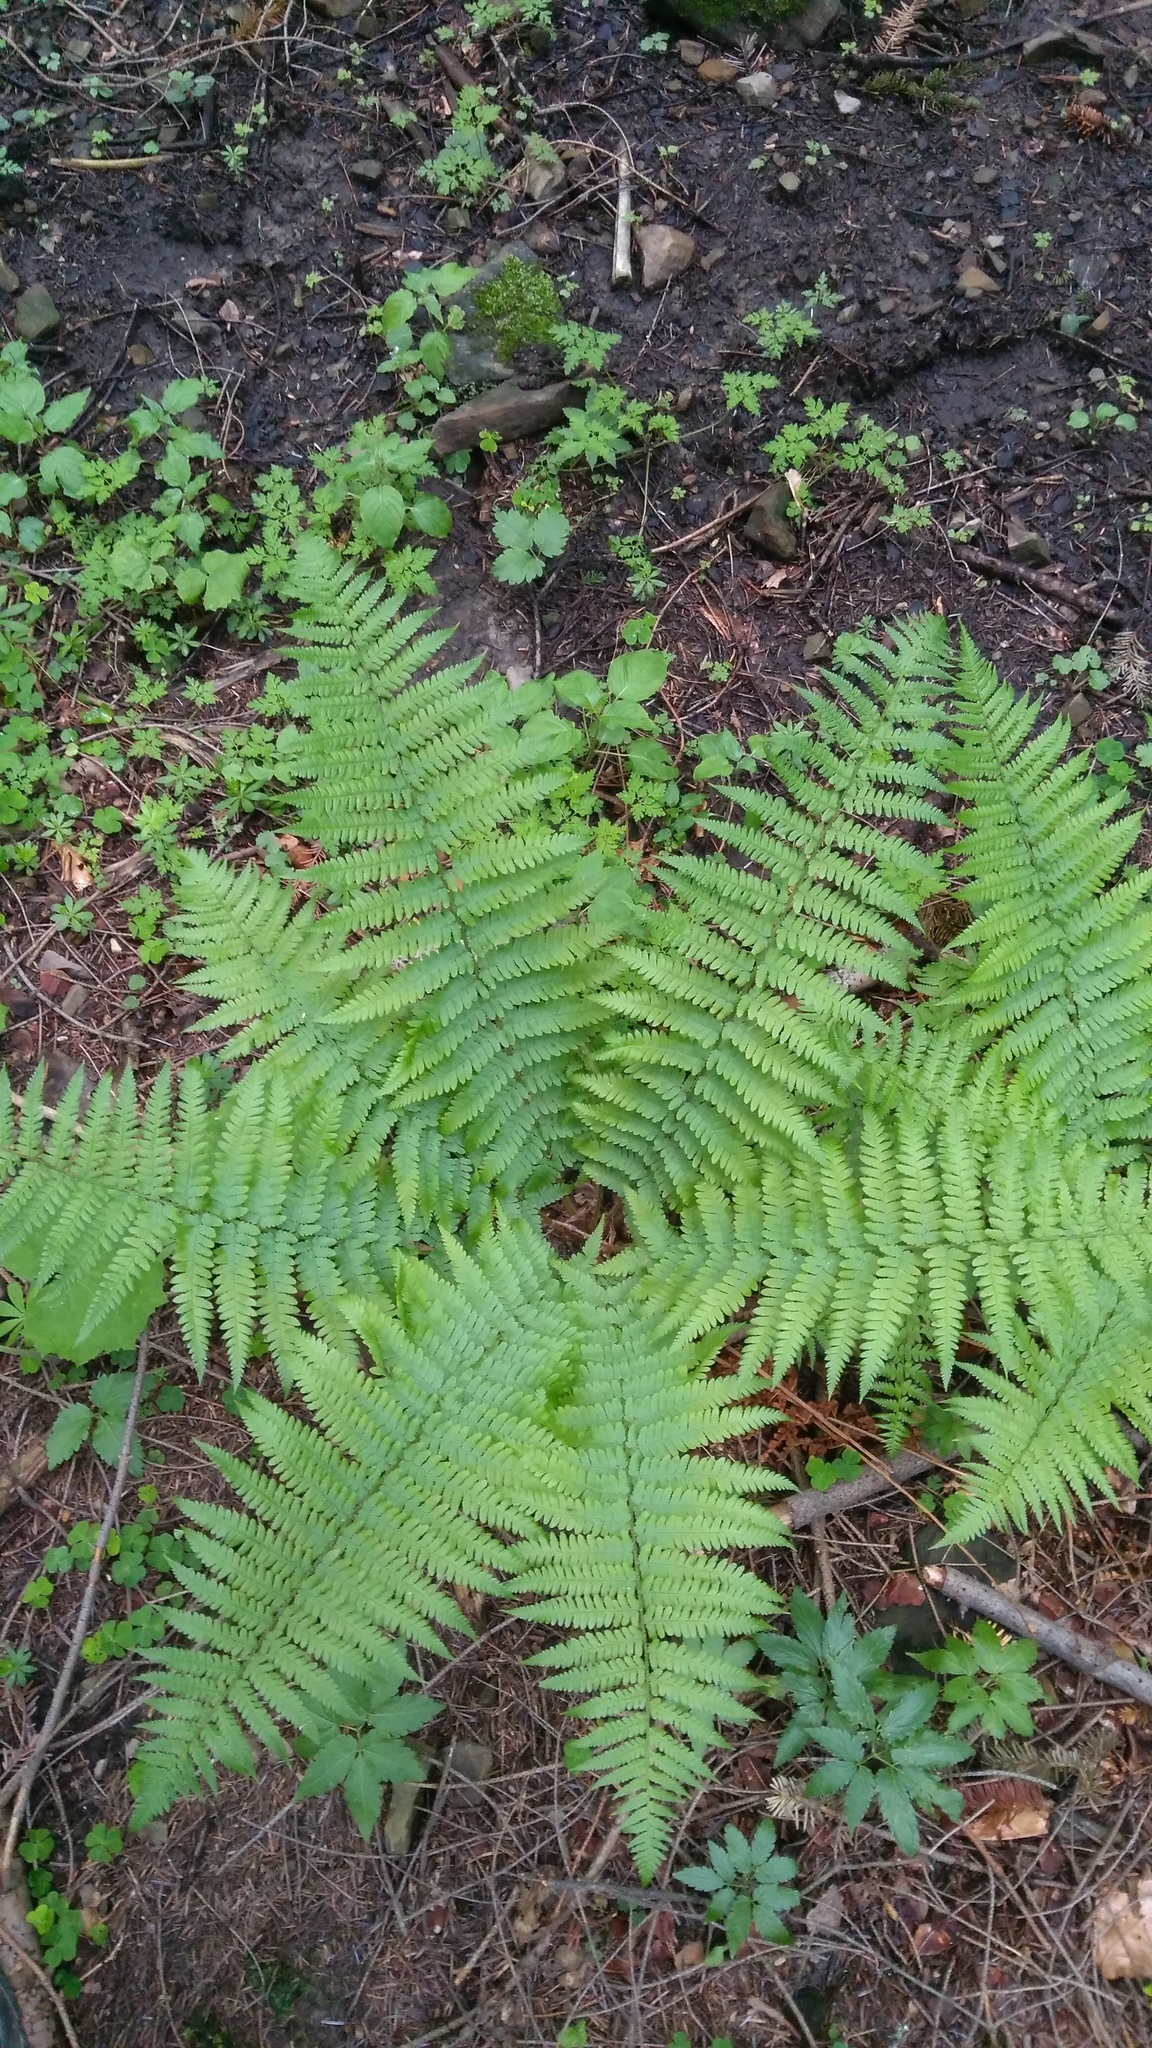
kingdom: Plantae
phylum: Tracheophyta
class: Polypodiopsida
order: Polypodiales
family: Dryopteridaceae
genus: Dryopteris
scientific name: Dryopteris filix-mas
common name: Male fern
